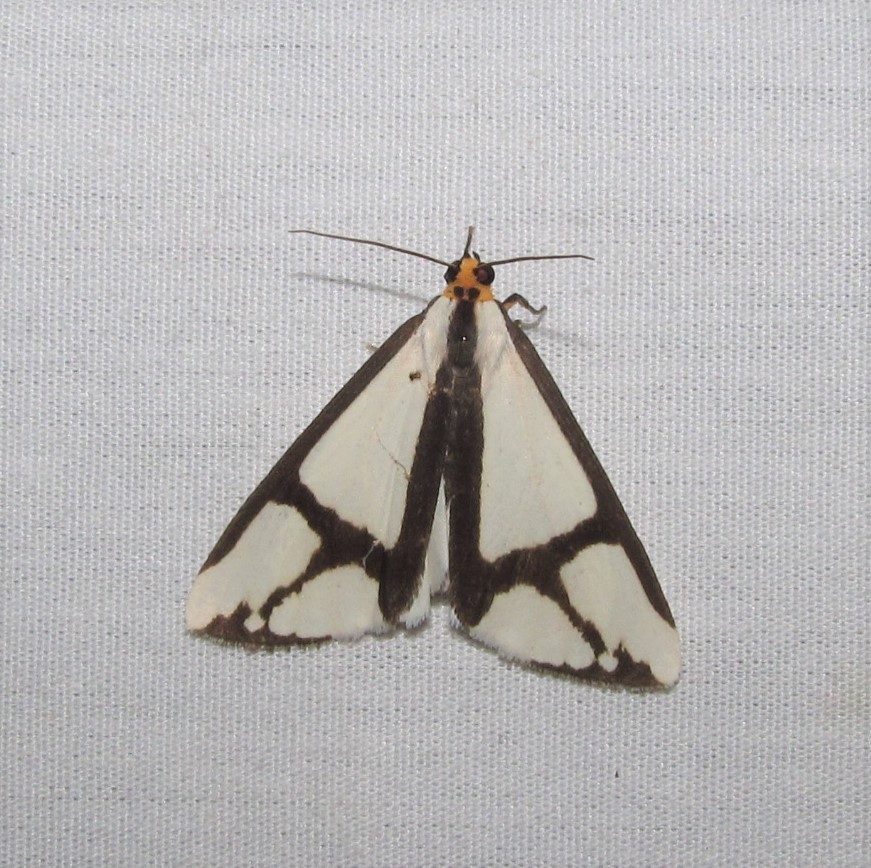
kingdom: Animalia
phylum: Arthropoda
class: Insecta
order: Lepidoptera
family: Erebidae
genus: Haploa
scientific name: Haploa contigua
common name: Neighbor moth
